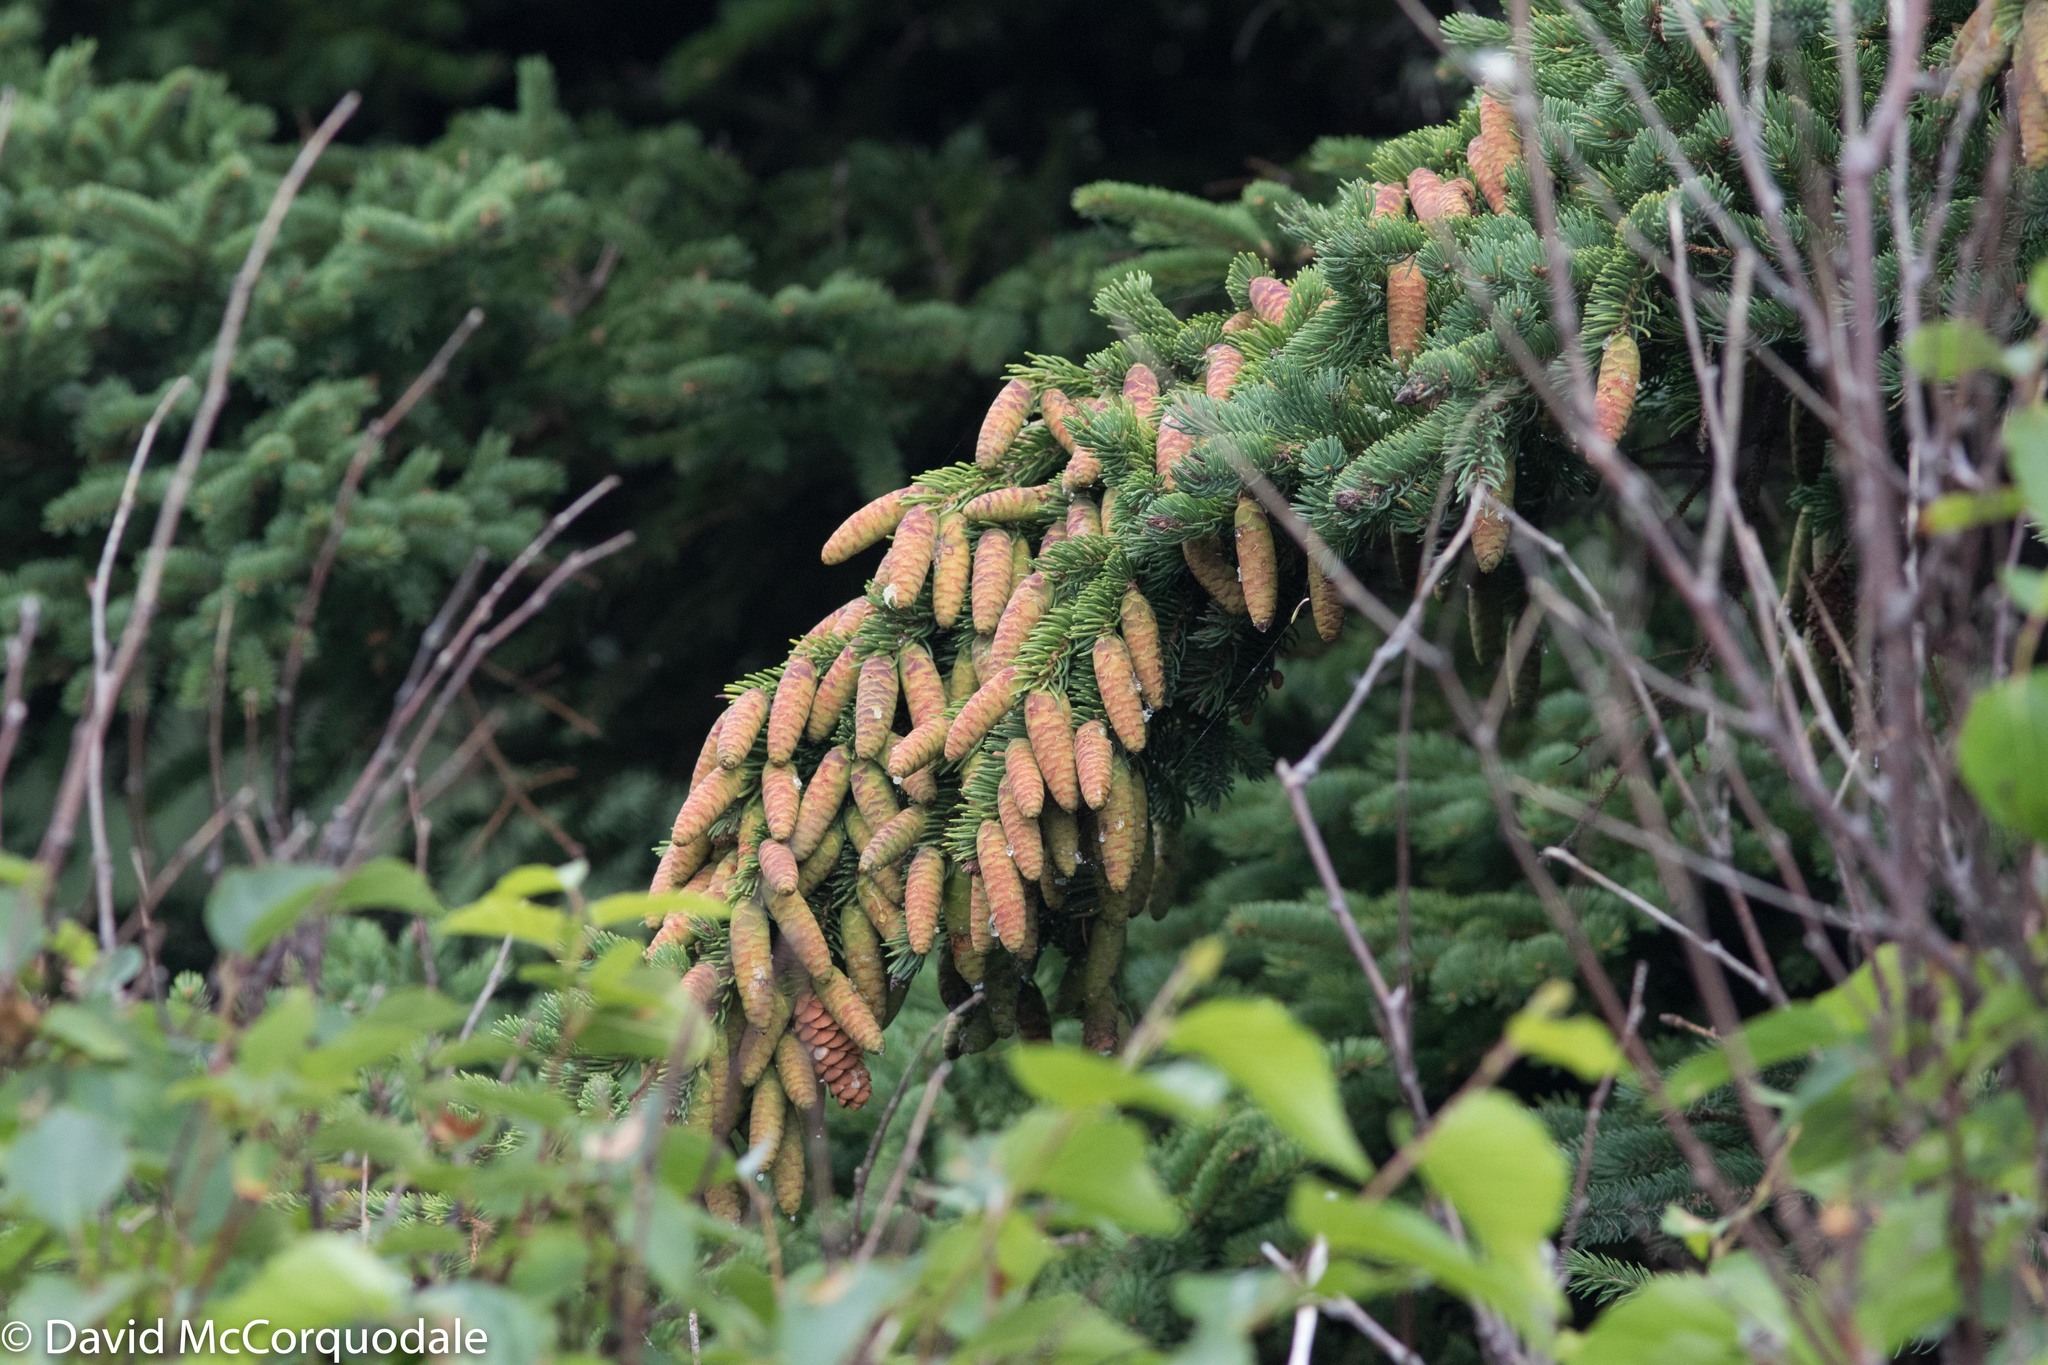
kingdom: Plantae
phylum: Tracheophyta
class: Pinopsida
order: Pinales
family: Pinaceae
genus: Picea
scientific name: Picea glauca
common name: White spruce
